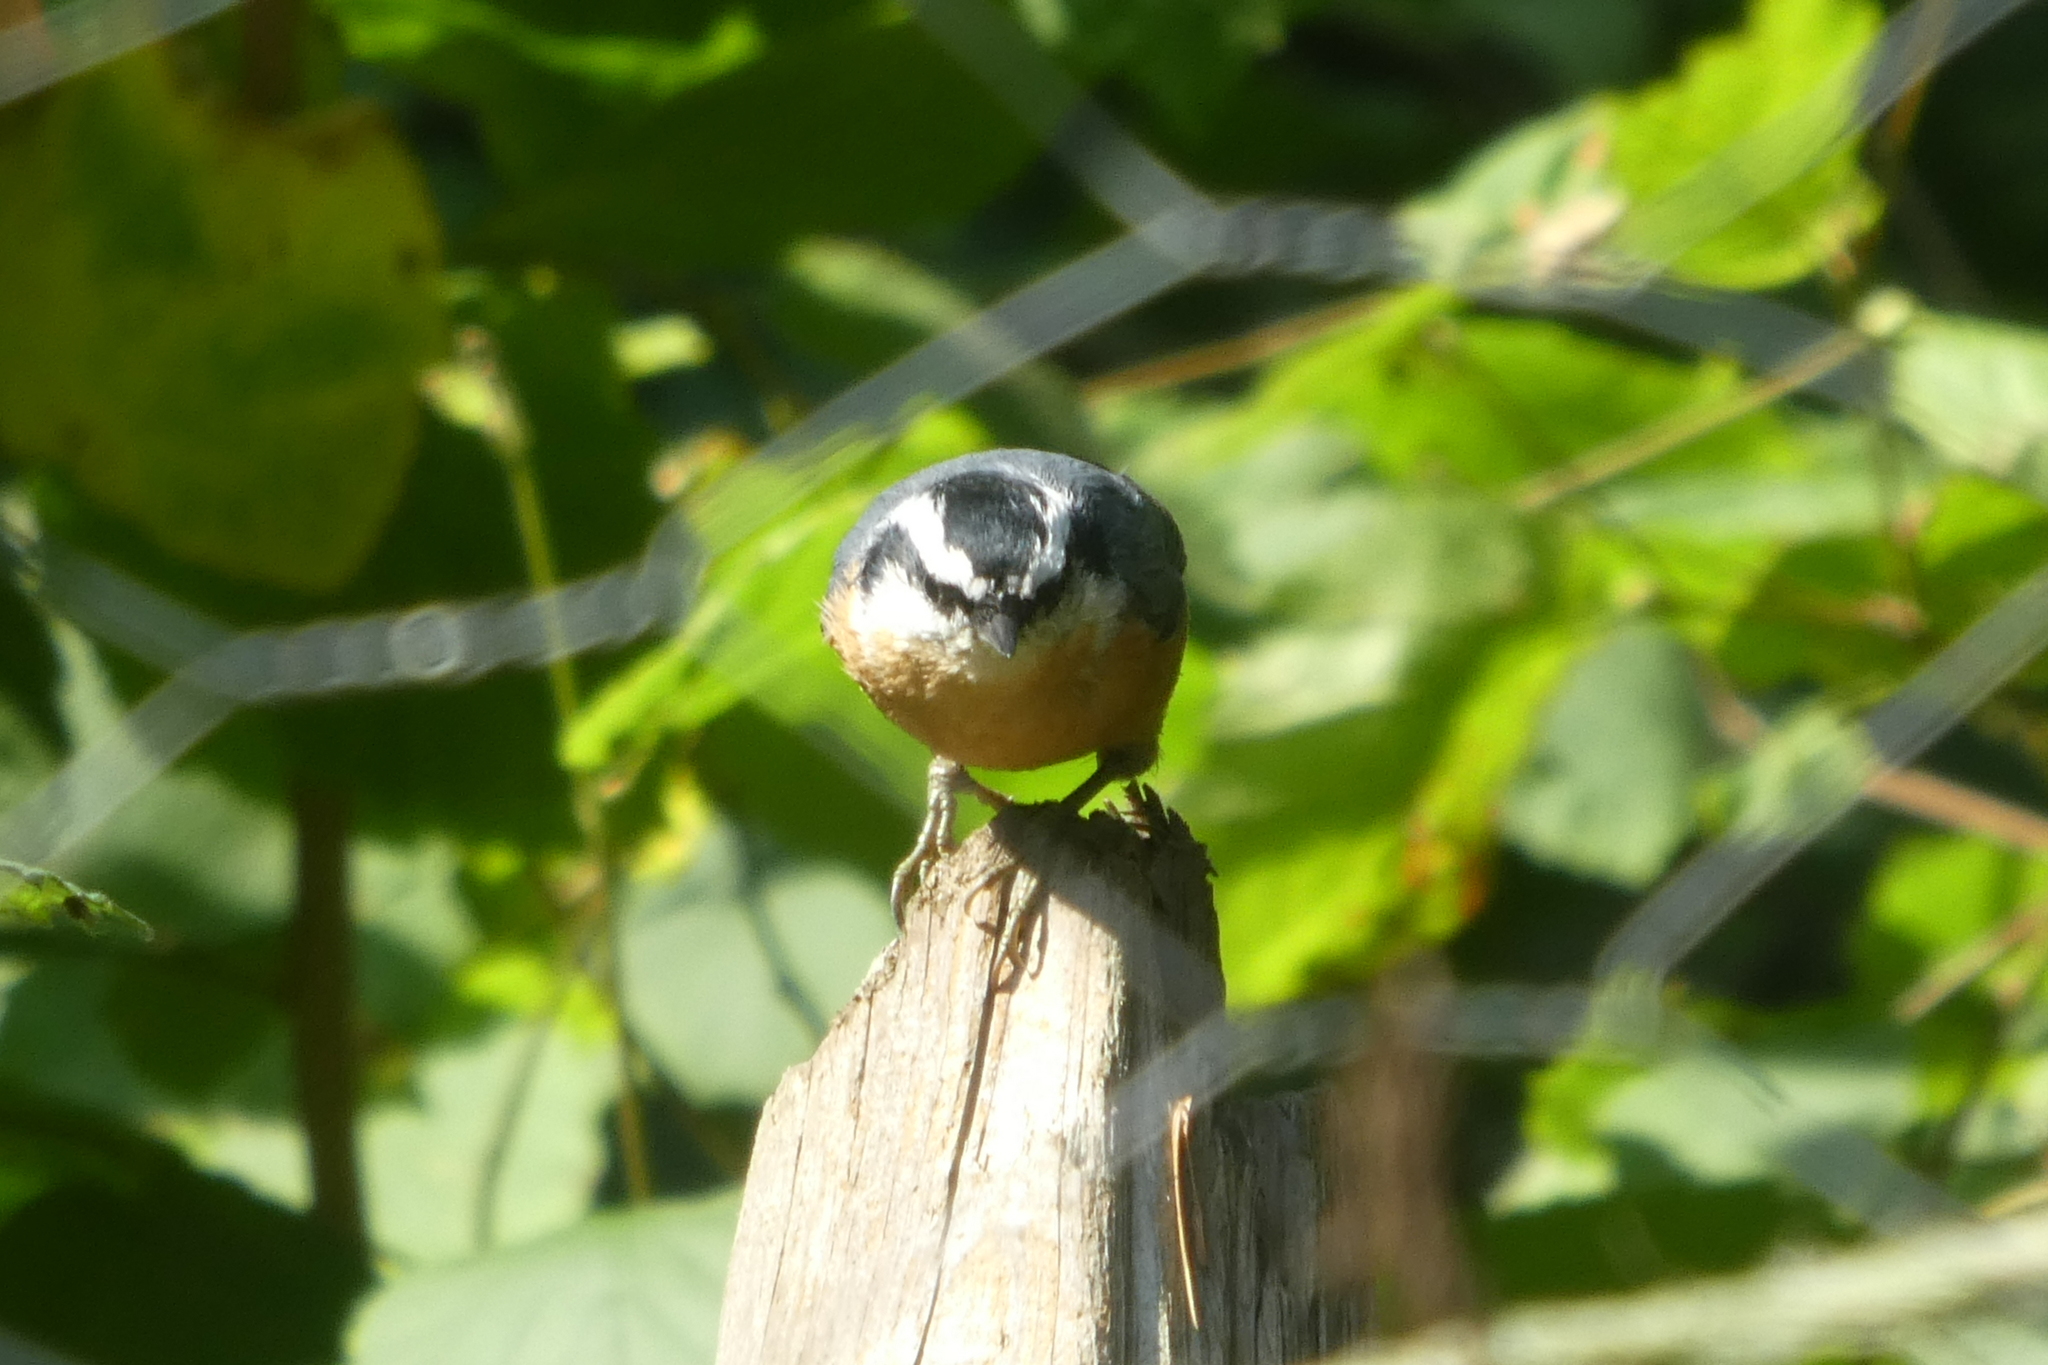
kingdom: Animalia
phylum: Chordata
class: Aves
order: Passeriformes
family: Sittidae
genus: Sitta
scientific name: Sitta canadensis
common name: Red-breasted nuthatch
